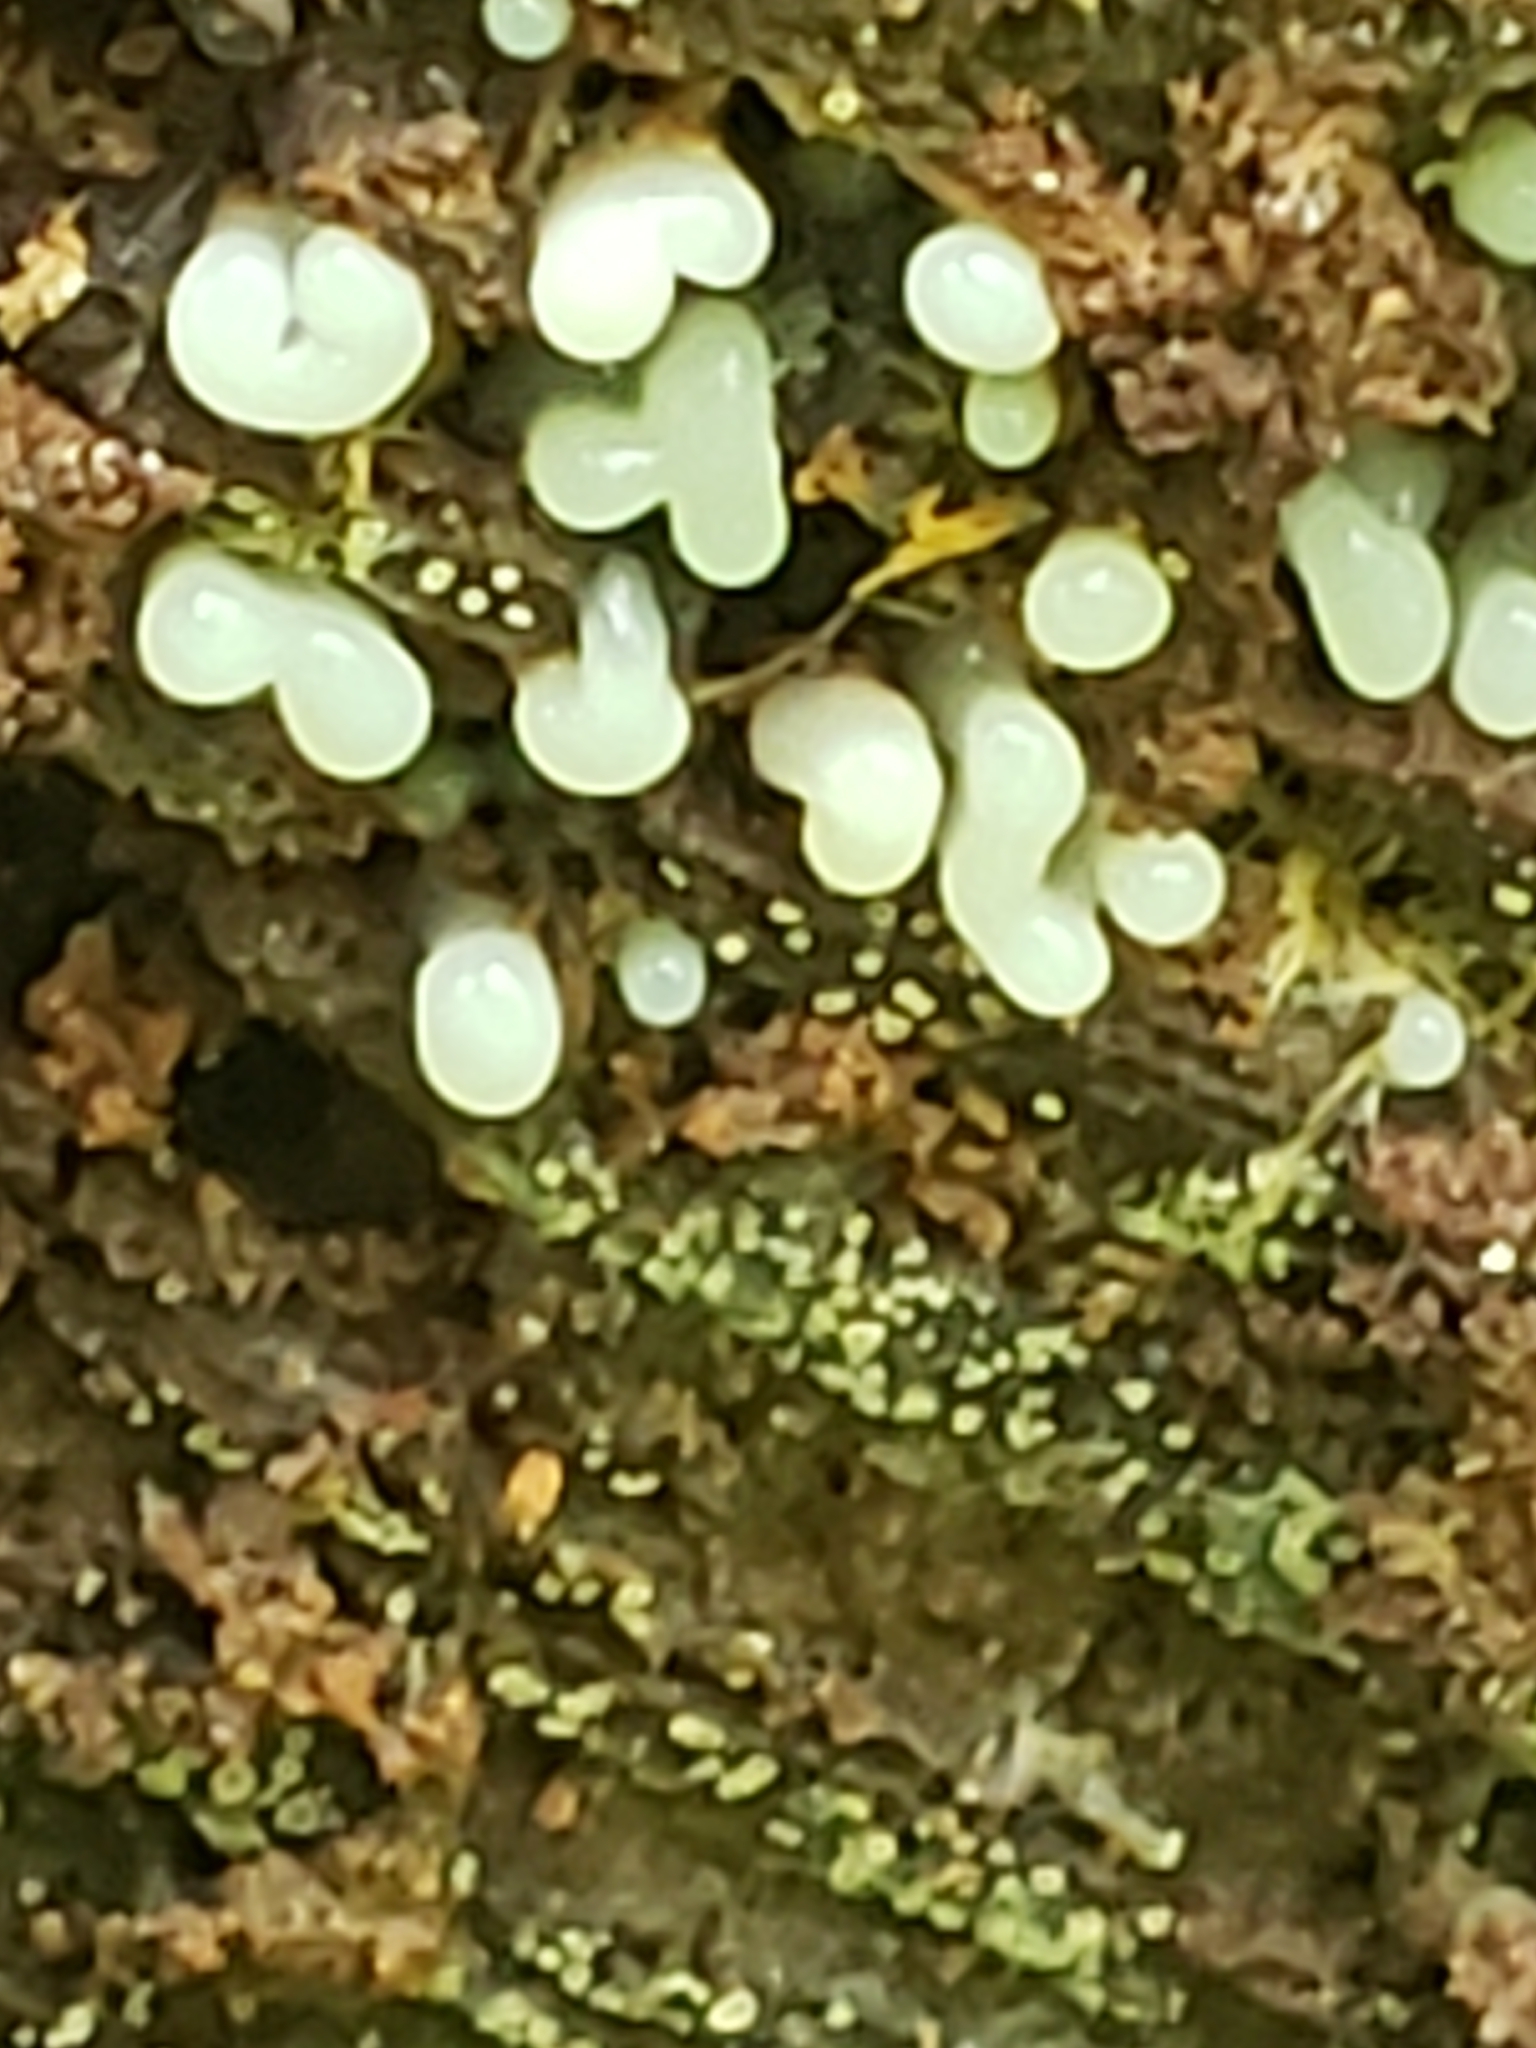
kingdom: Fungi
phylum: Basidiomycota
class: Atractiellomycetes
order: Atractiellales
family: Phleogenaceae
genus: Helicogloea
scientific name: Helicogloea compressa
